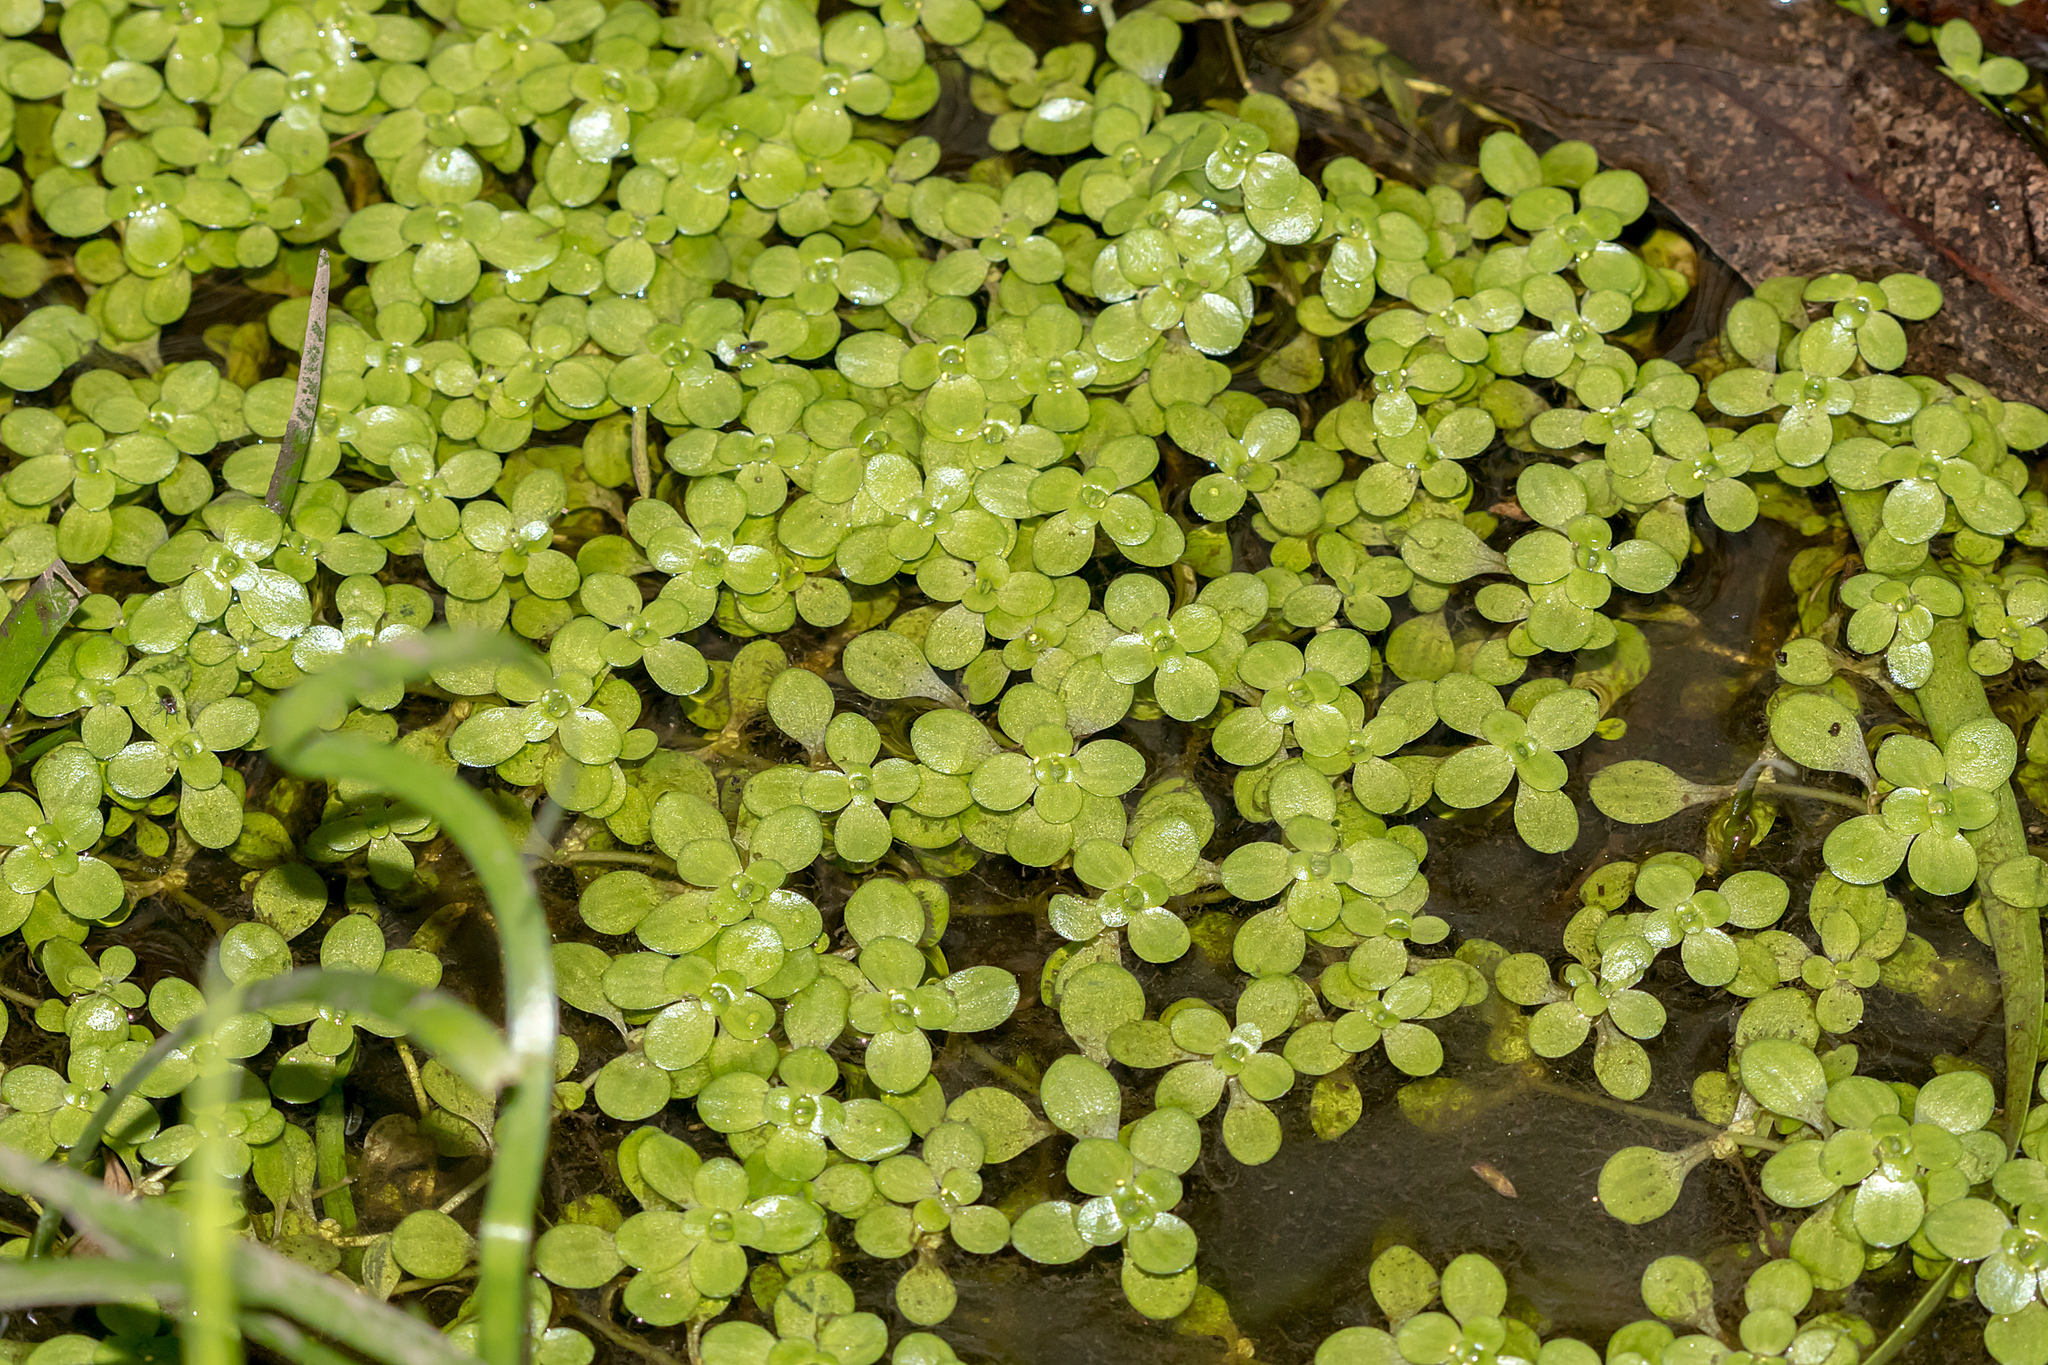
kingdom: Plantae
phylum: Tracheophyta
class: Magnoliopsida
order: Lamiales
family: Plantaginaceae
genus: Callitriche
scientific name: Callitriche stagnalis
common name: Common water-starwort
